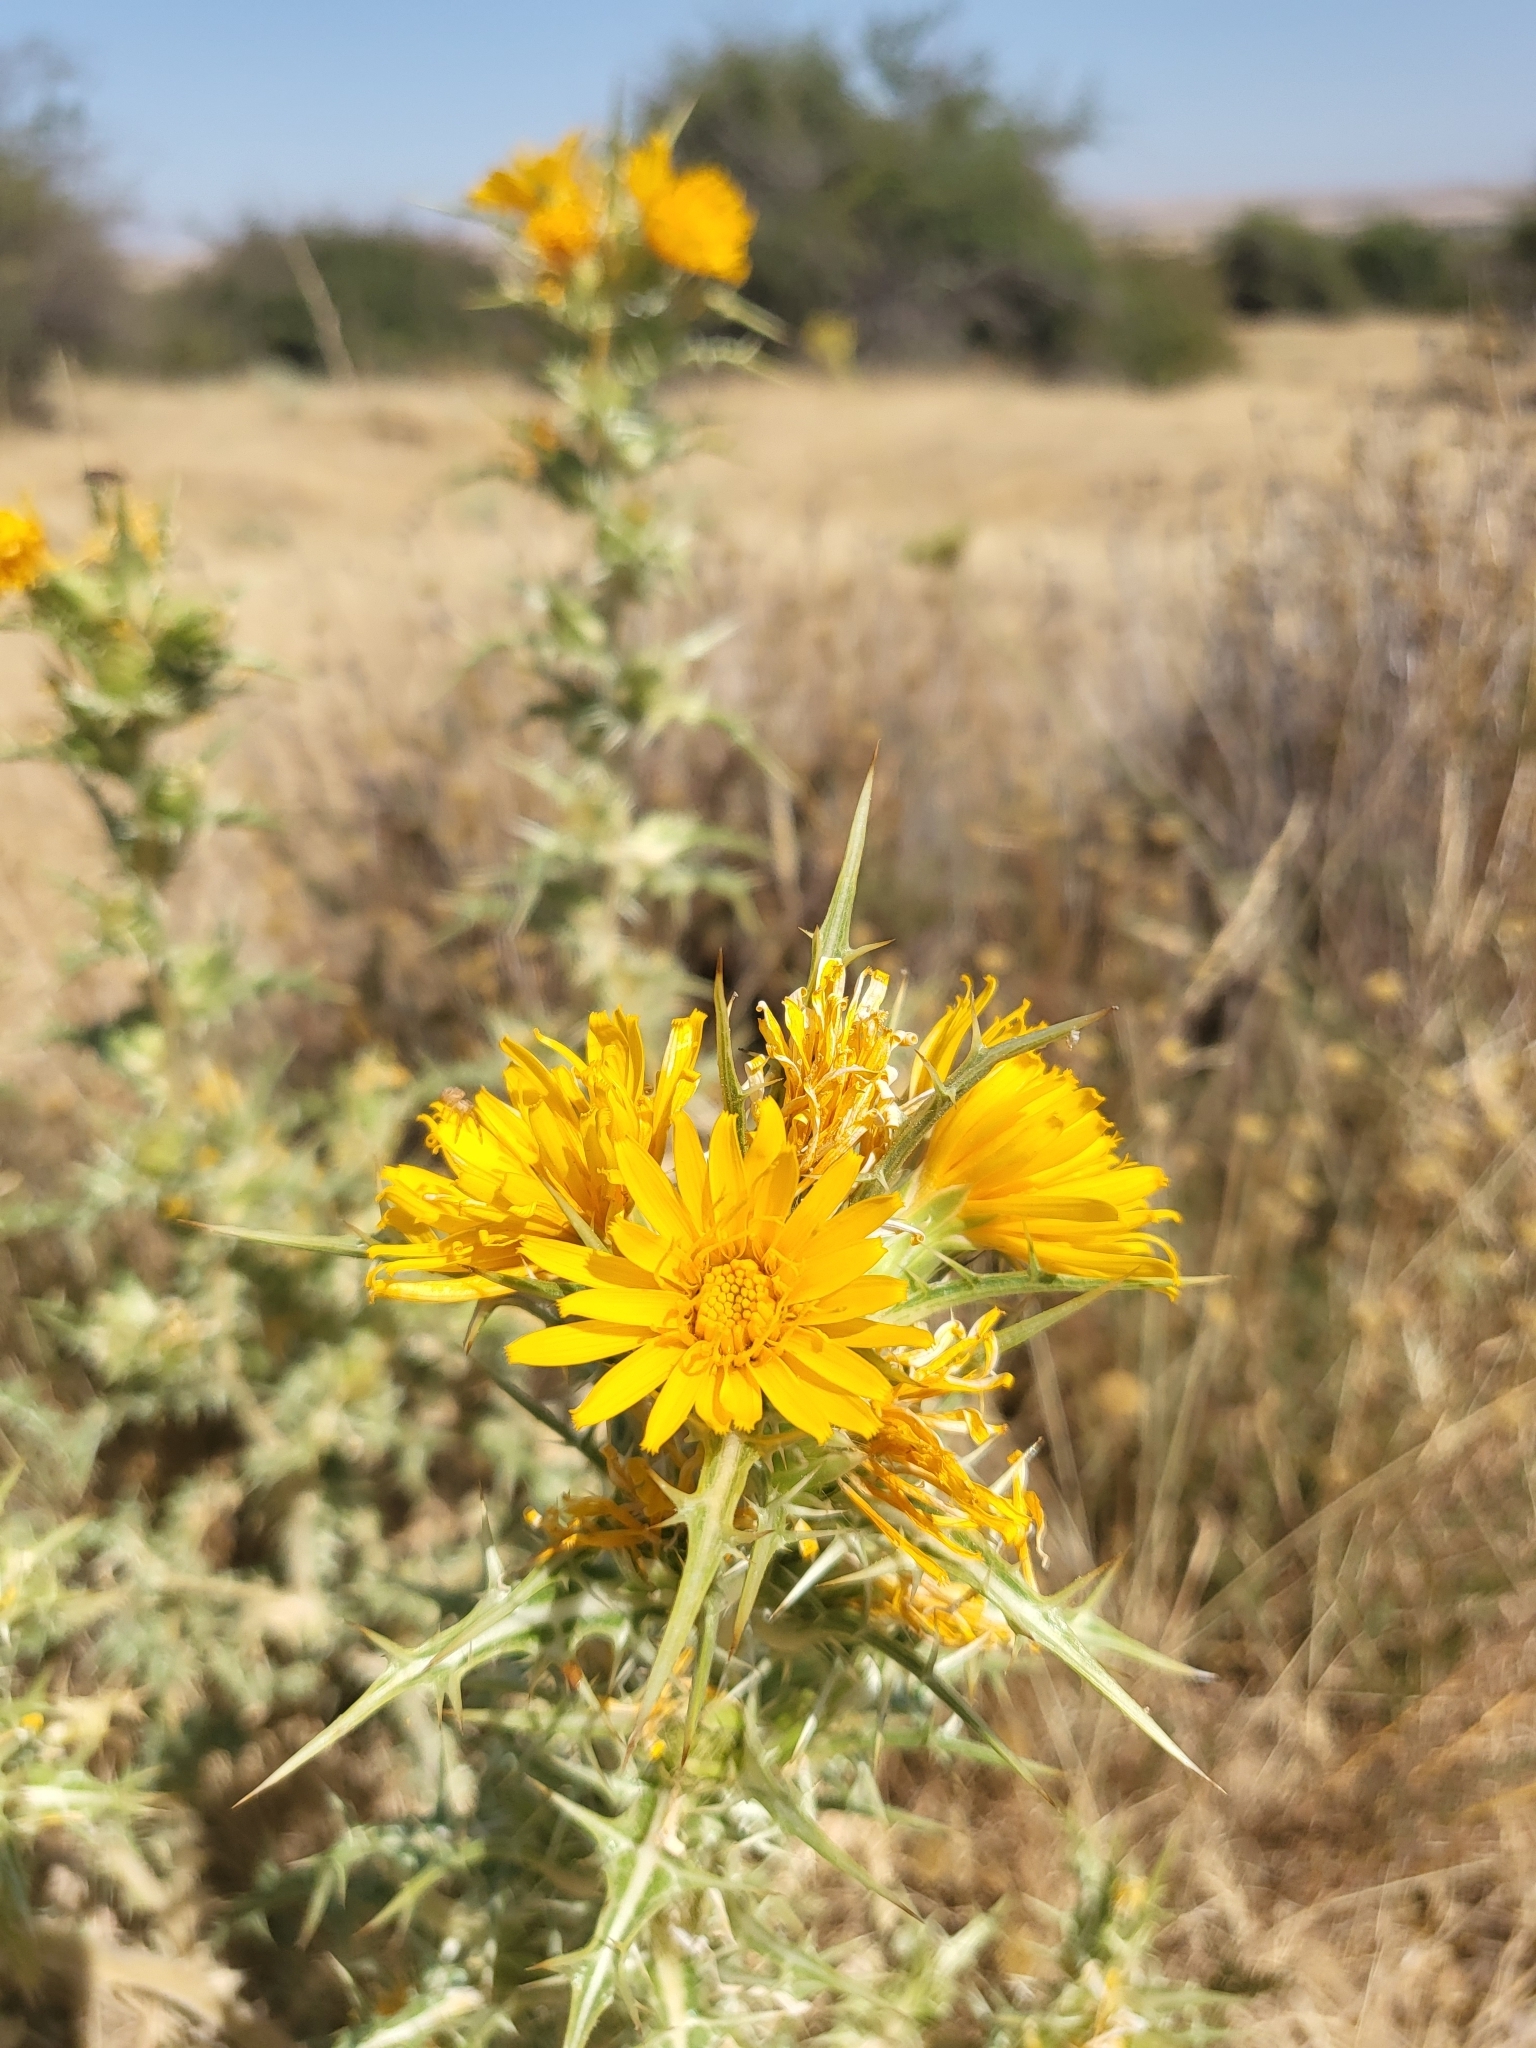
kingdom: Plantae
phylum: Tracheophyta
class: Magnoliopsida
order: Asterales
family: Asteraceae
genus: Scolymus
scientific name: Scolymus hispanicus
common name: Golden thistle
